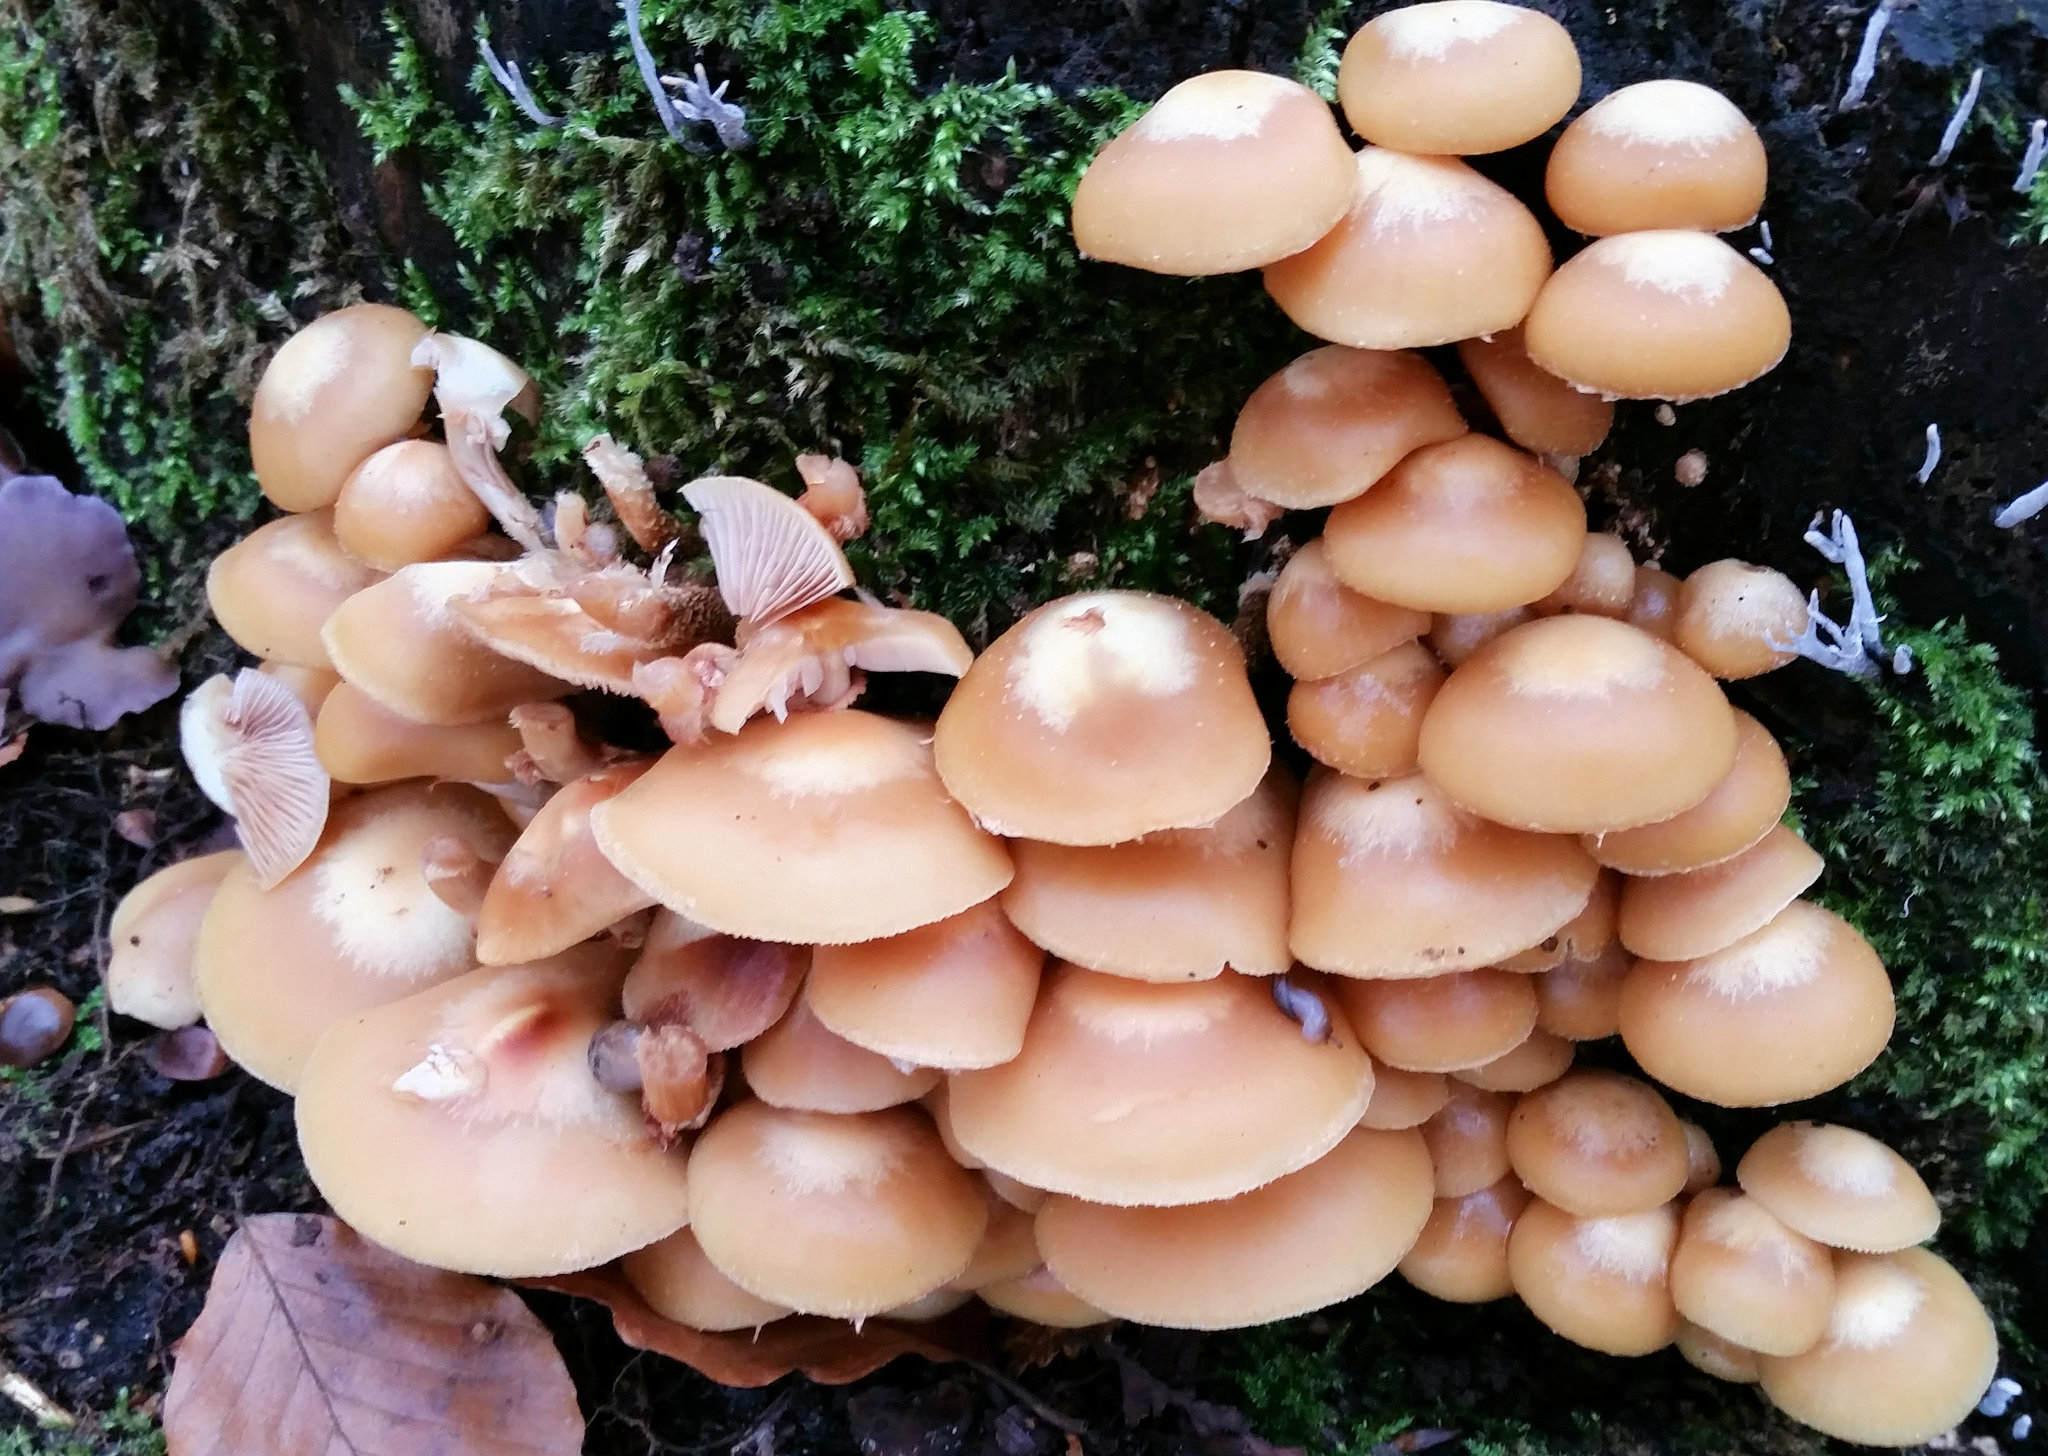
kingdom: Fungi
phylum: Basidiomycota
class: Agaricomycetes
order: Agaricales
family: Strophariaceae
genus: Kuehneromyces
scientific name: Kuehneromyces mutabilis
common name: Sheathed woodtuft
